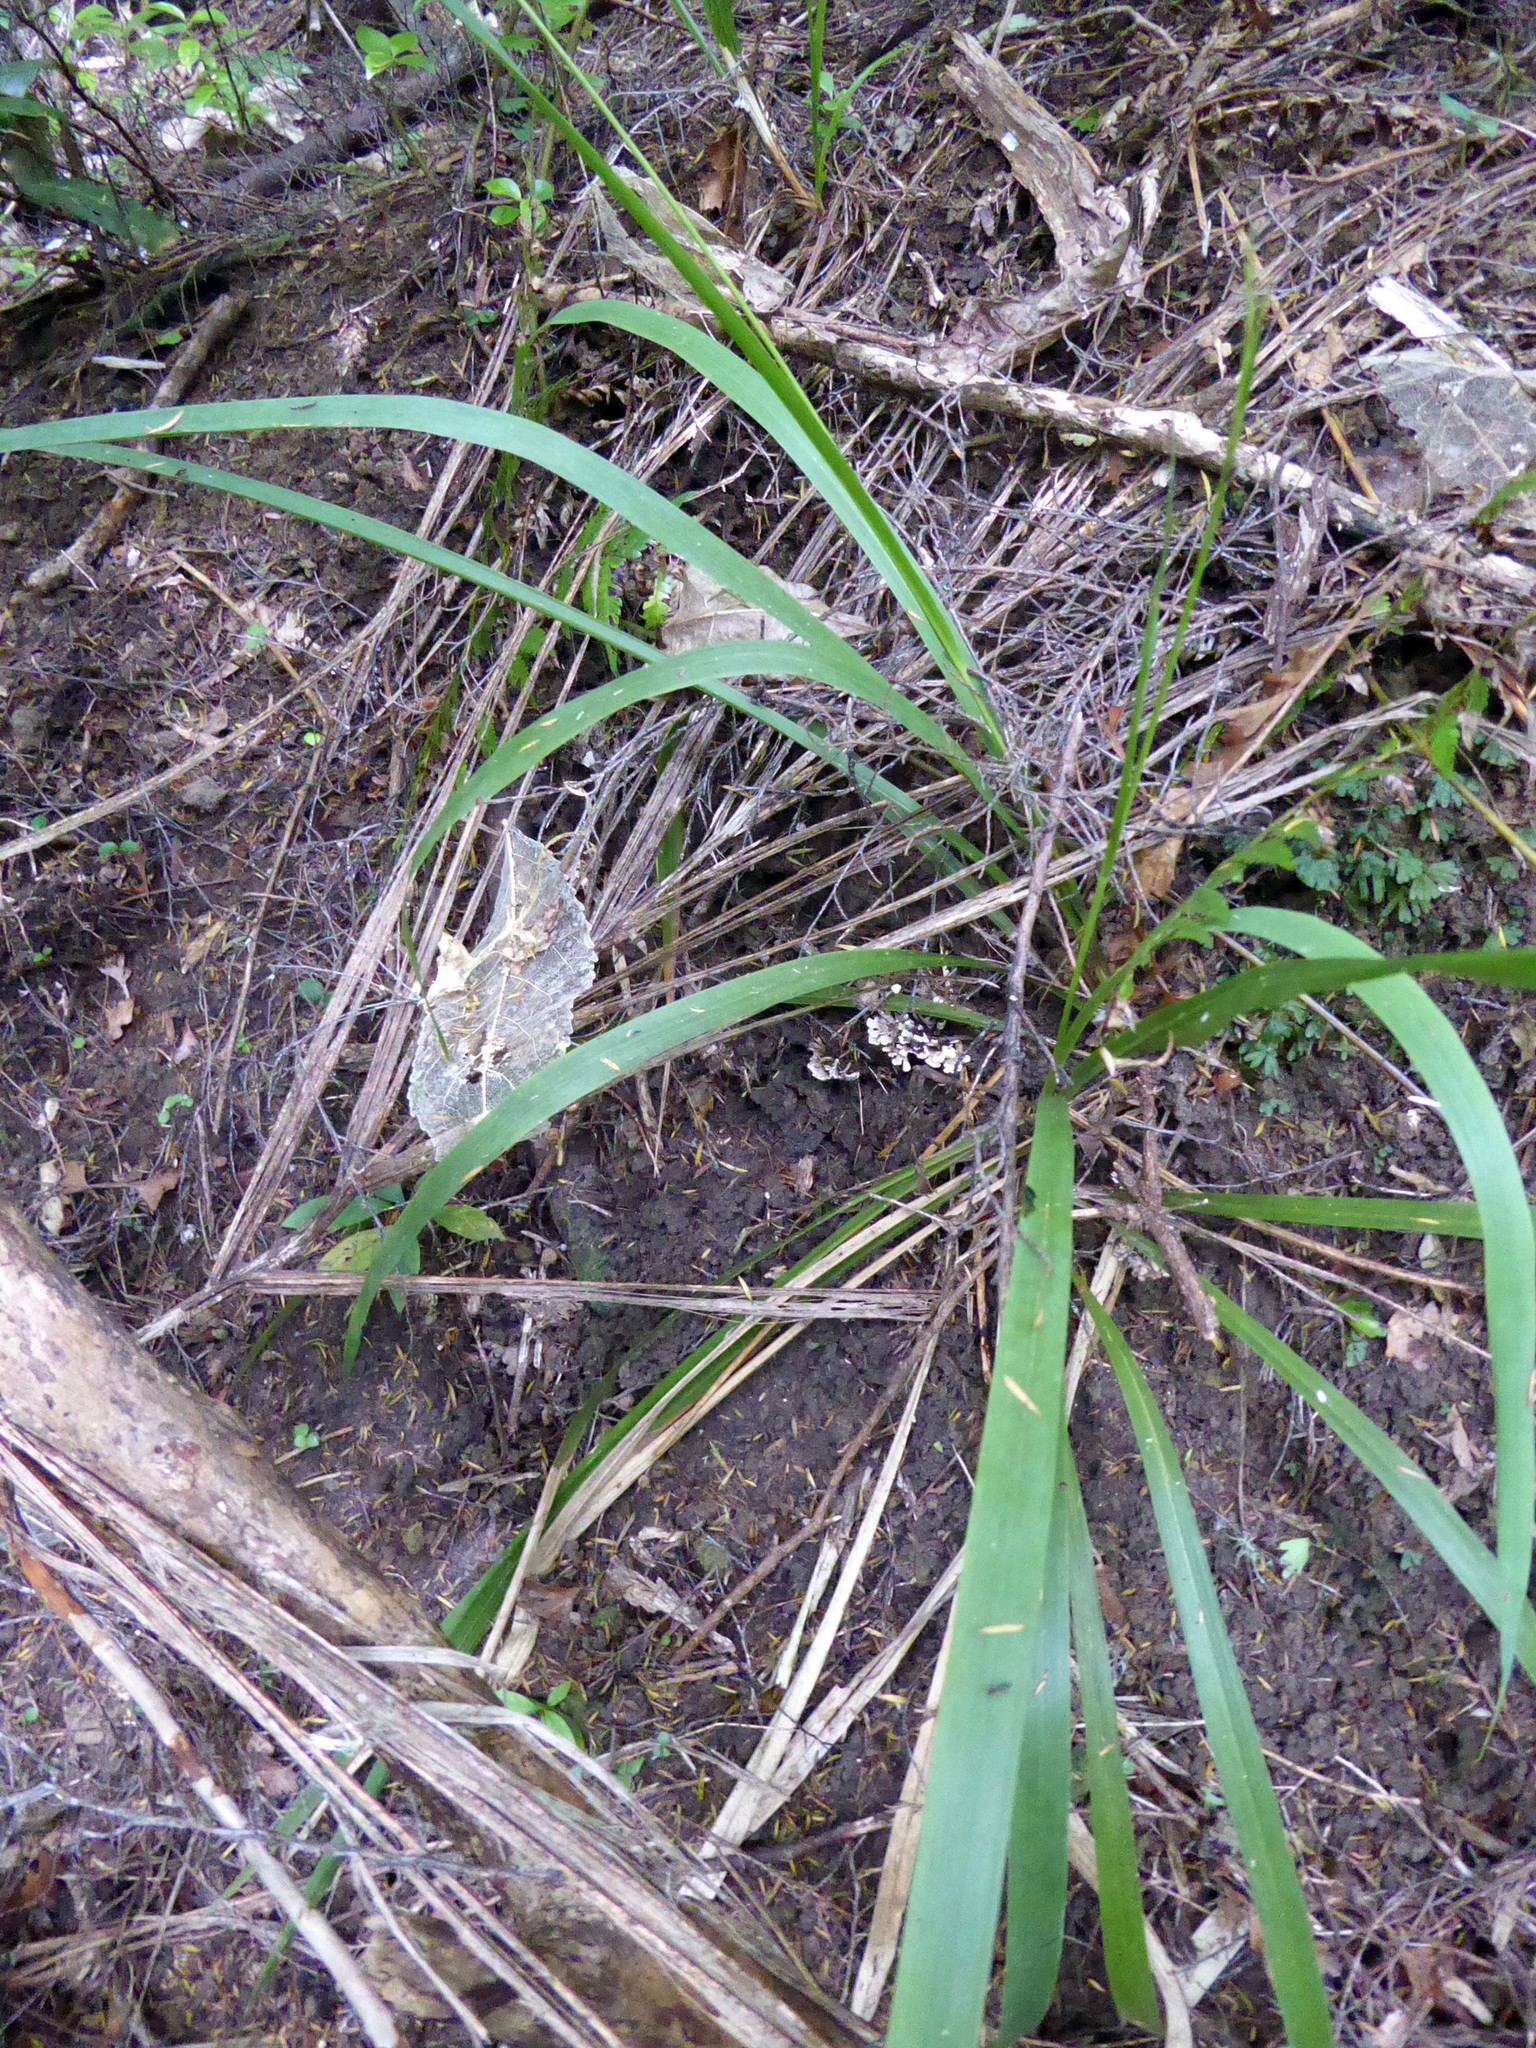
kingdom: Plantae
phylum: Tracheophyta
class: Liliopsida
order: Poales
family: Poaceae
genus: Ehrharta
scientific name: Ehrharta diplax
